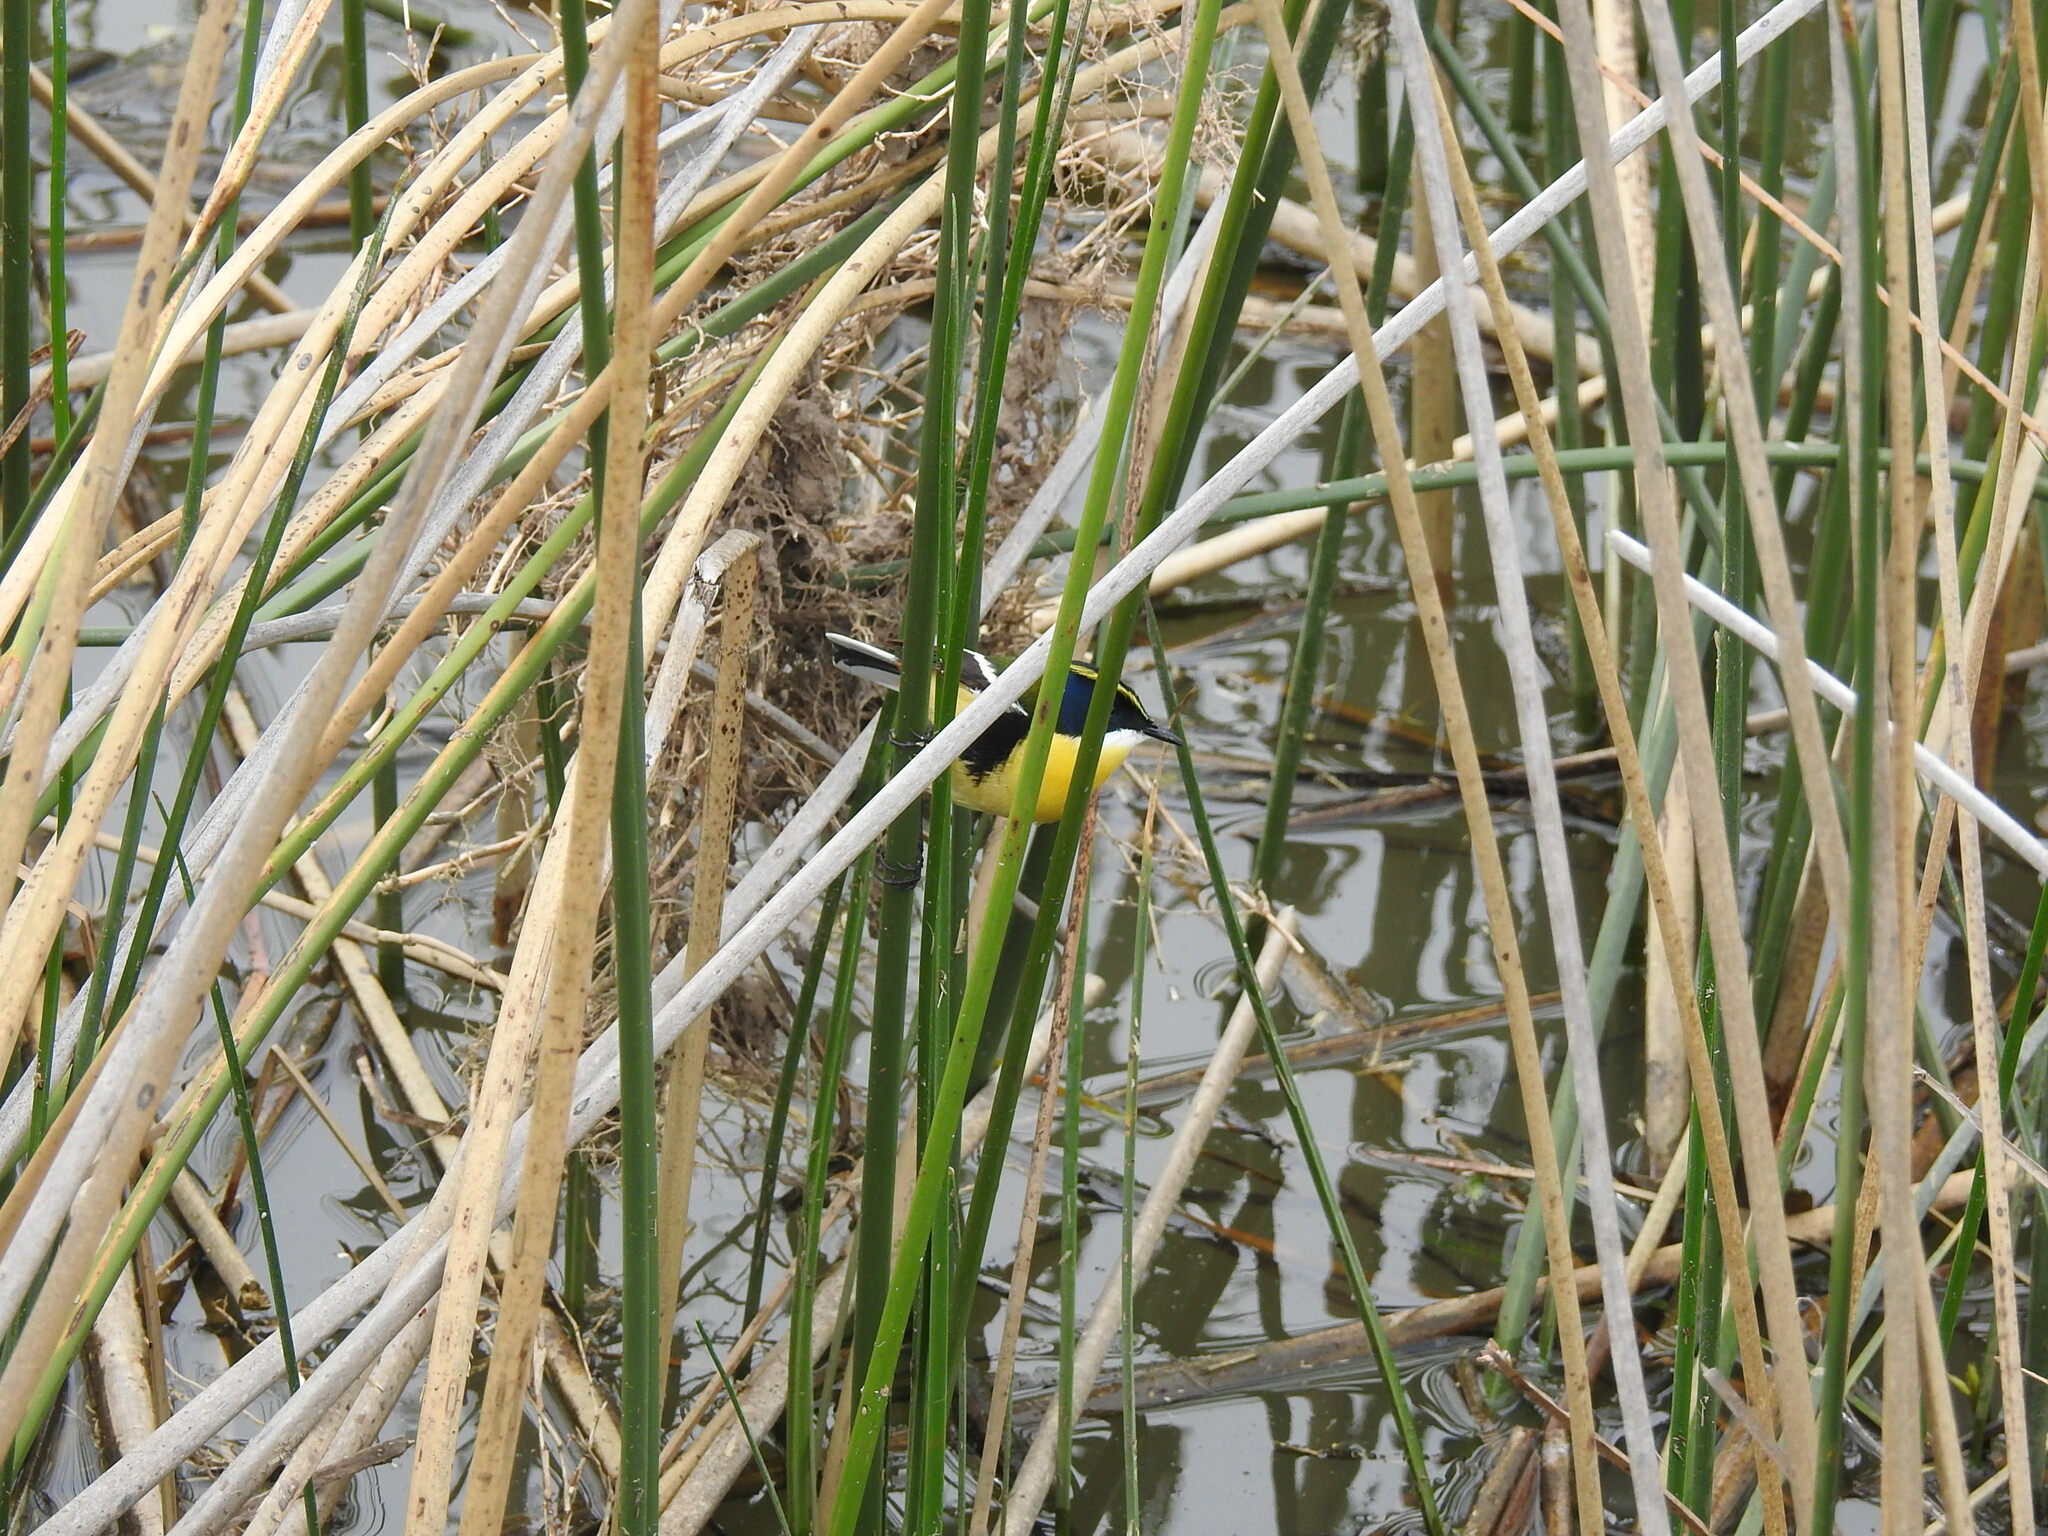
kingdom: Animalia
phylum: Chordata
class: Aves
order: Passeriformes
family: Tyrannidae
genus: Tachuris
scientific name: Tachuris rubrigastra
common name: Many-colored rush tyrant
